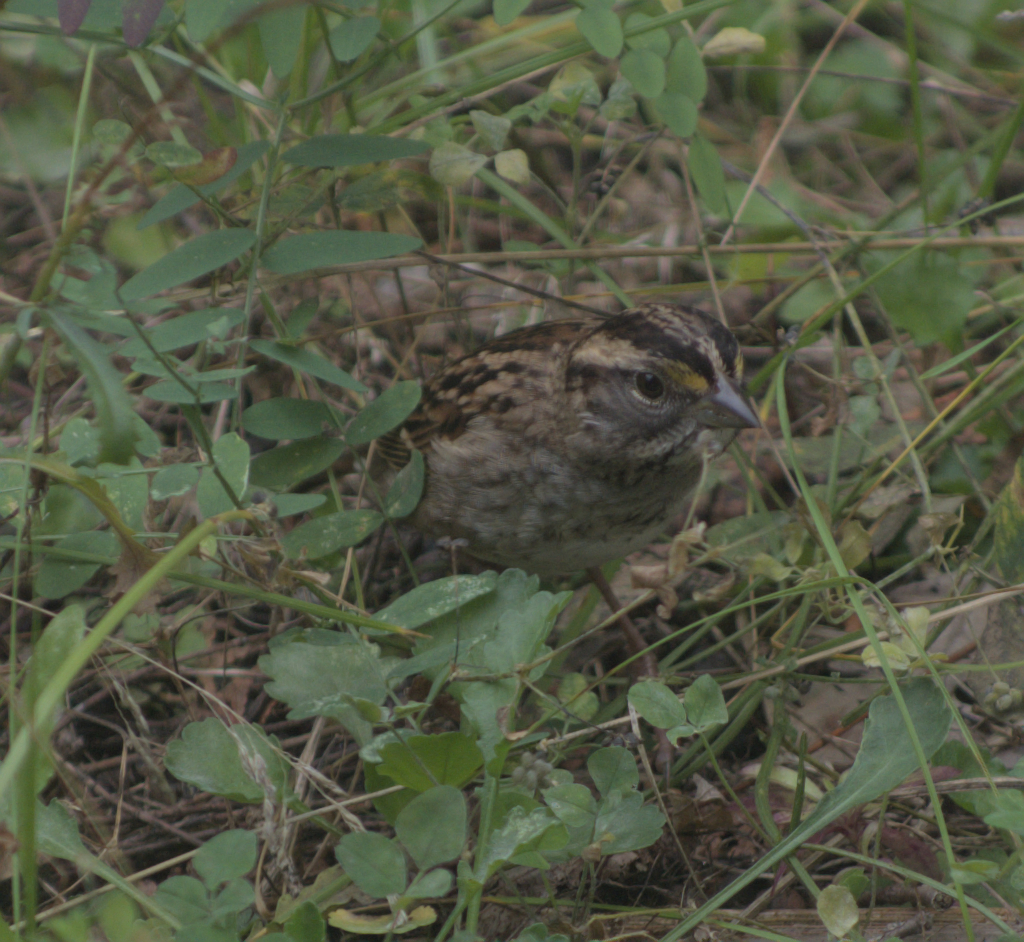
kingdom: Animalia
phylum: Chordata
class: Aves
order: Passeriformes
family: Passerellidae
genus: Zonotrichia
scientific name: Zonotrichia albicollis
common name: White-throated sparrow
